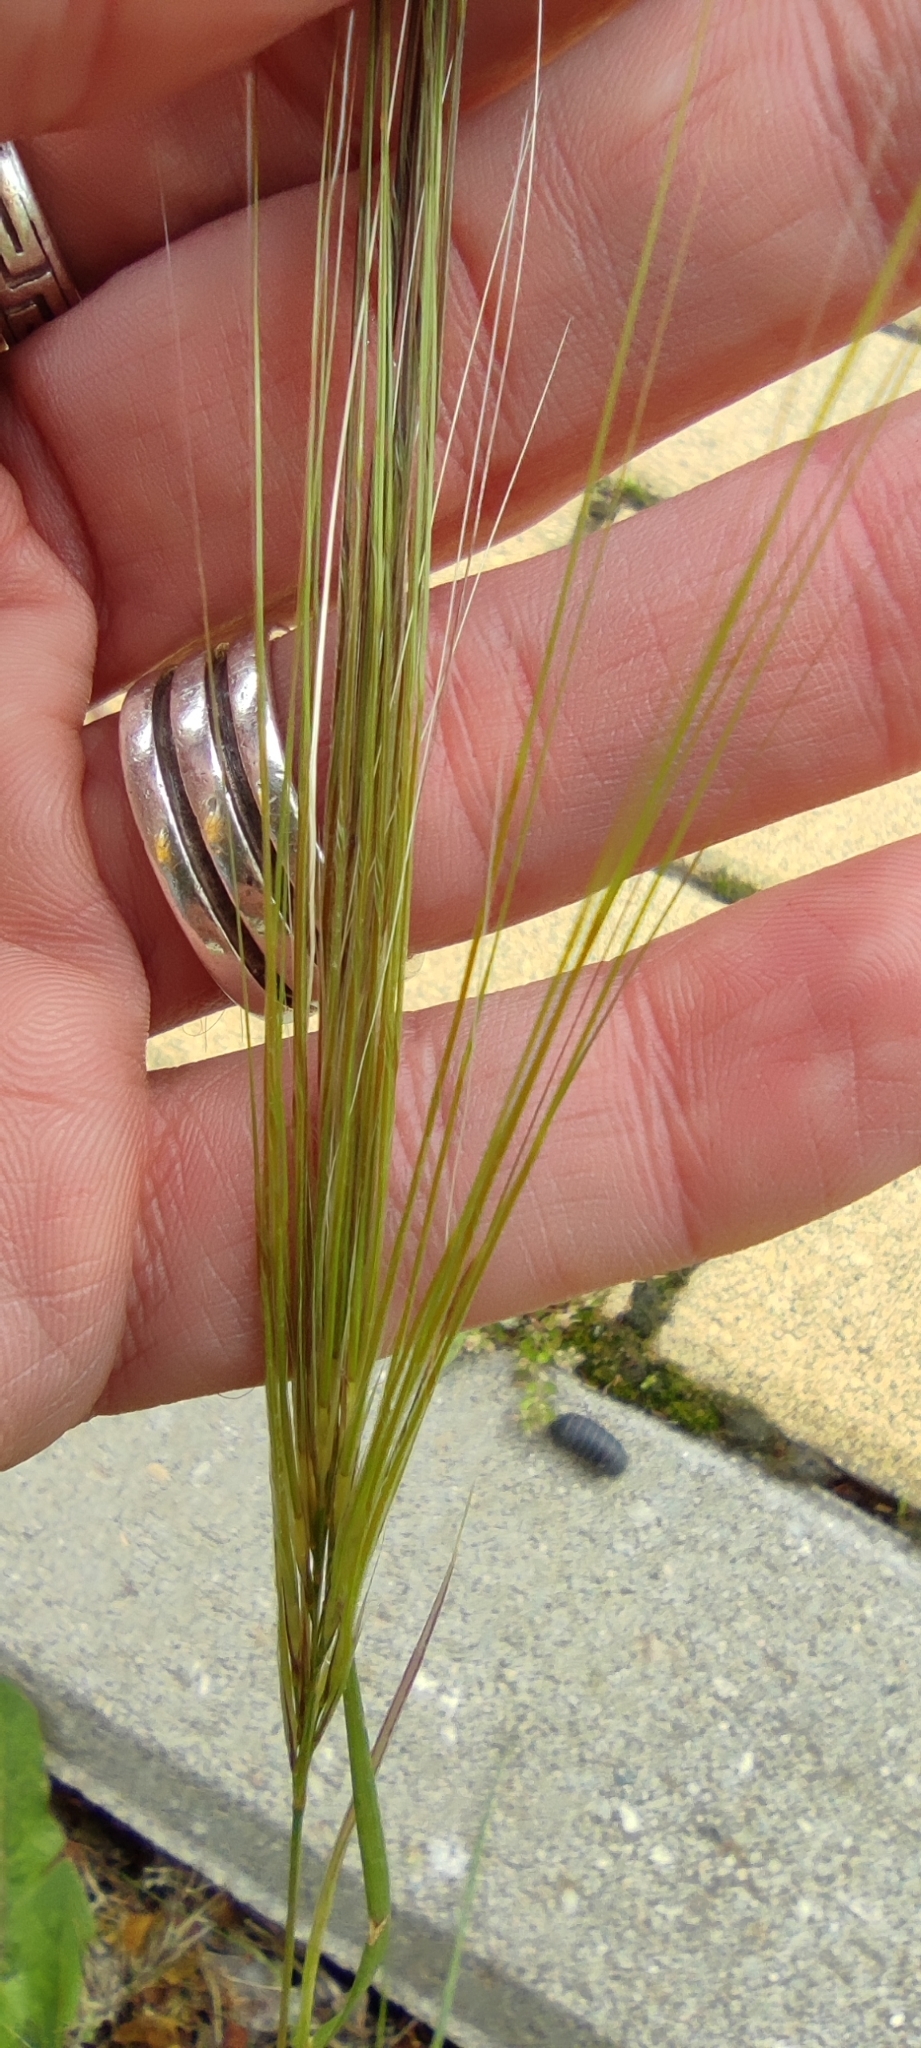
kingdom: Plantae
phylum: Tracheophyta
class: Liliopsida
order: Poales
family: Poaceae
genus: Stipellula
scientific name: Stipellula capensis
